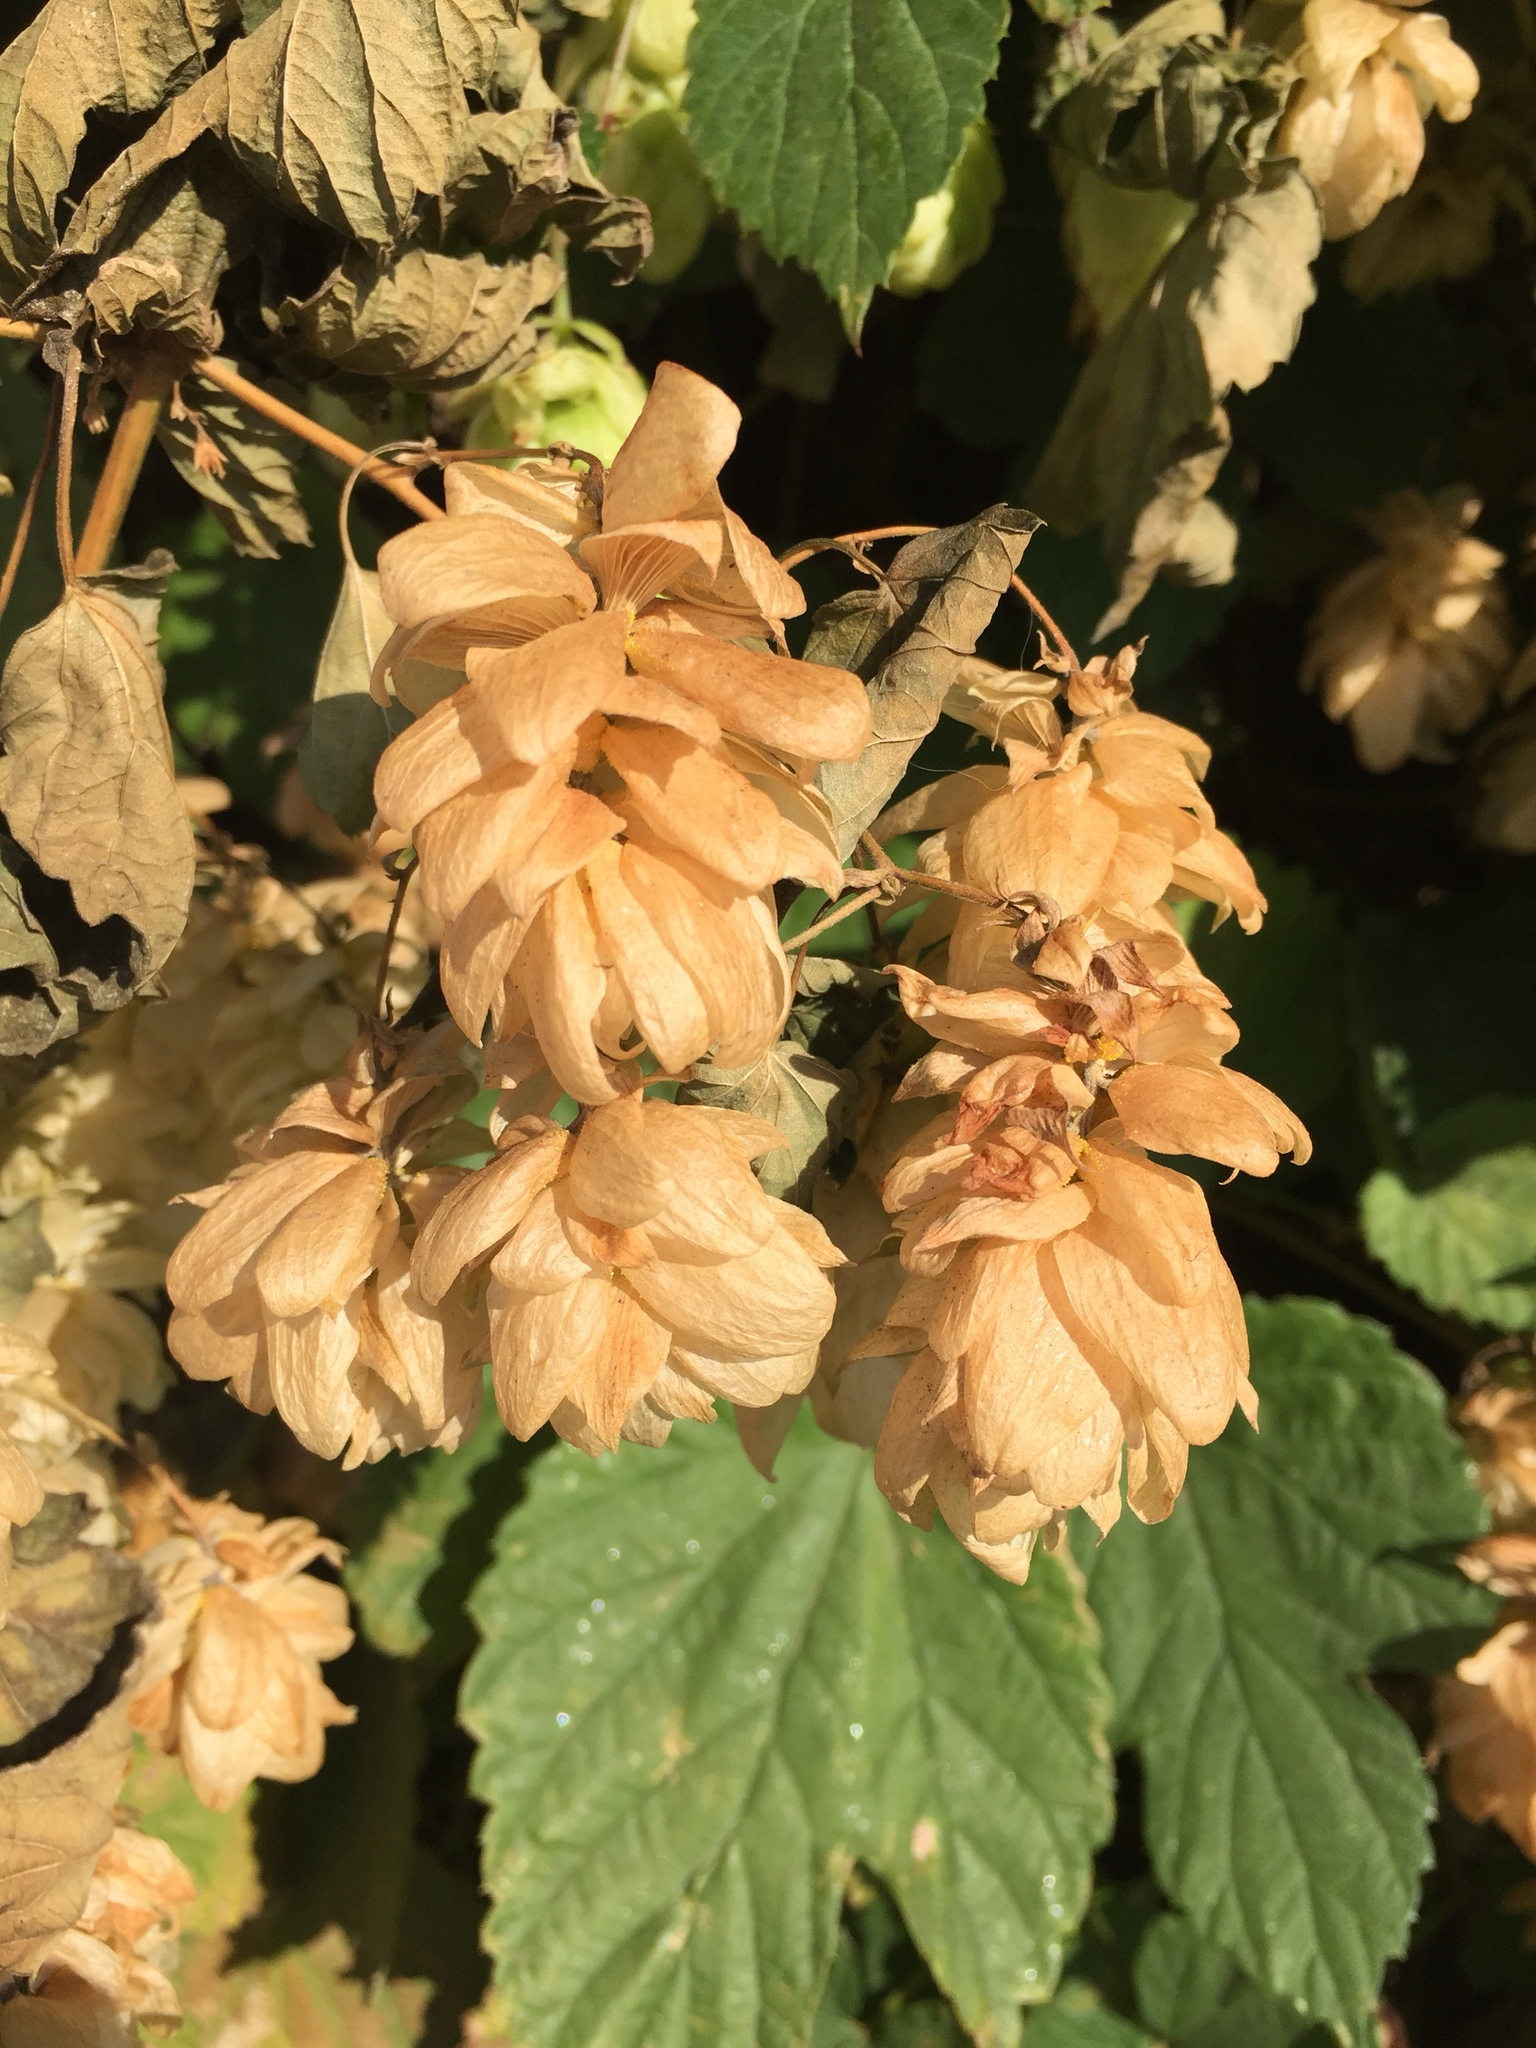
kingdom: Plantae
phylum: Tracheophyta
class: Magnoliopsida
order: Rosales
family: Cannabaceae
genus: Humulus
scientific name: Humulus lupulus
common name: Hop
